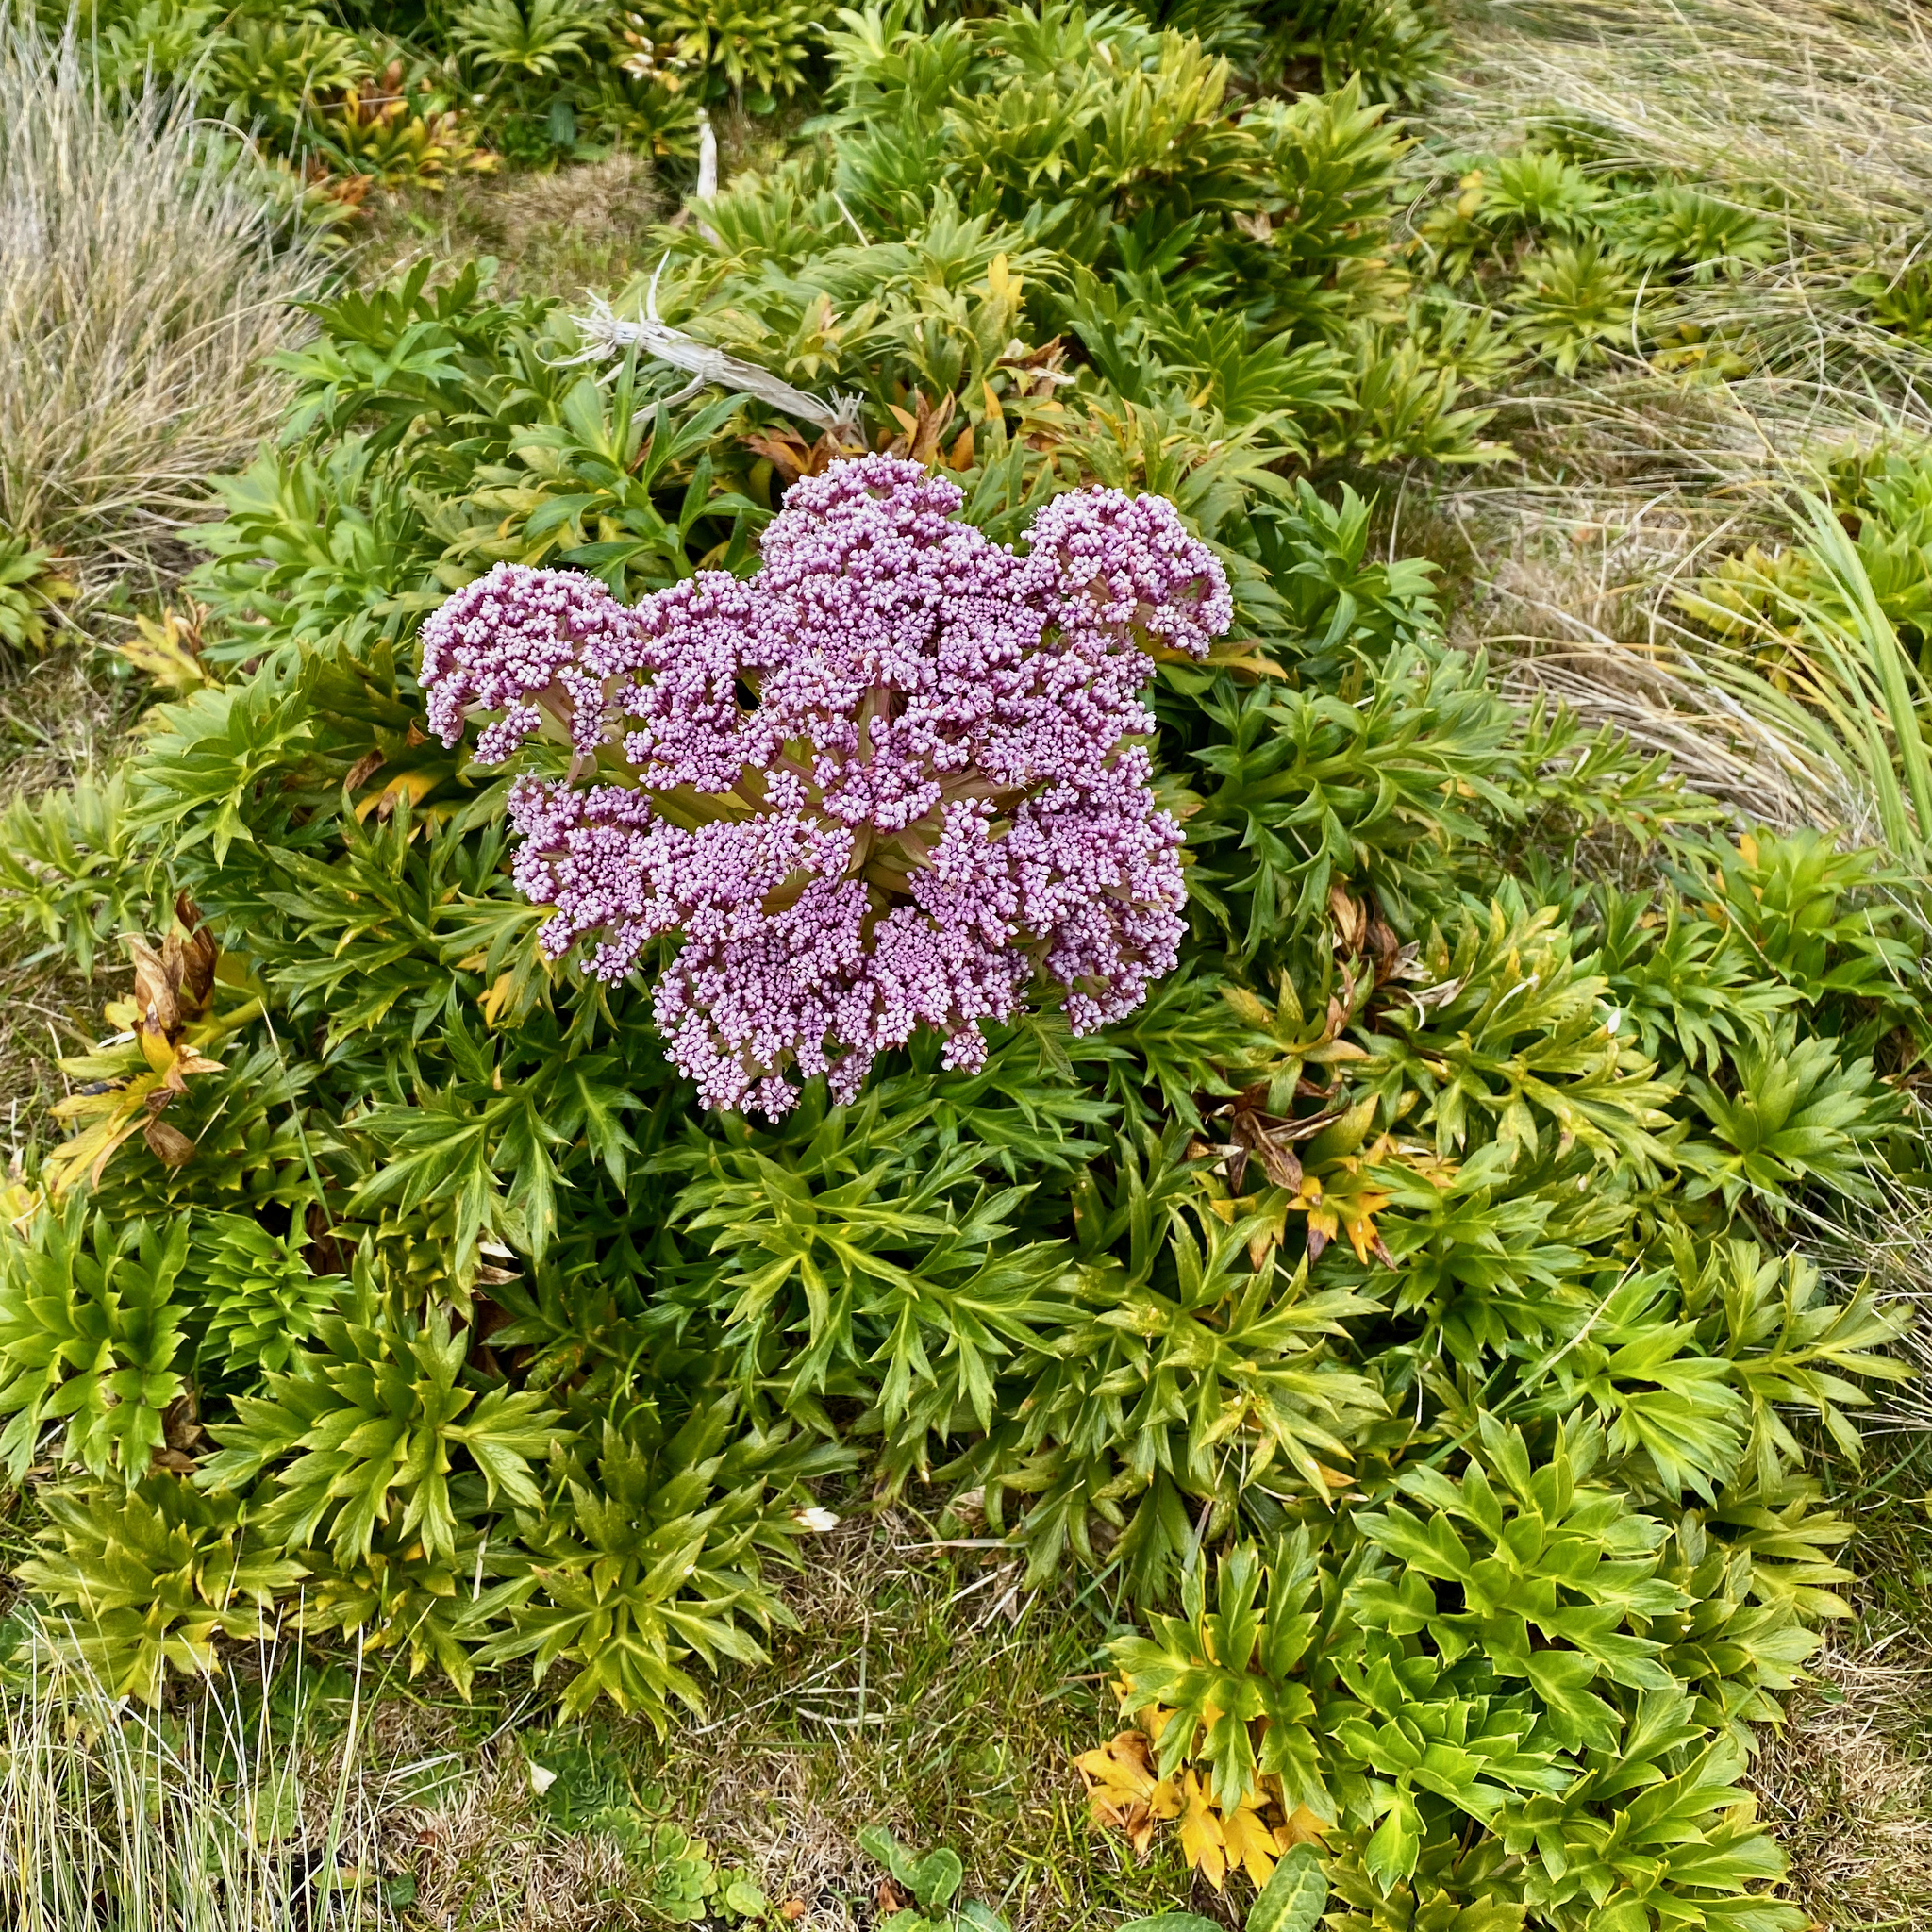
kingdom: Plantae
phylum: Tracheophyta
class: Magnoliopsida
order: Apiales
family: Apiaceae
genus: Anisotome
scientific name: Anisotome latifolia
